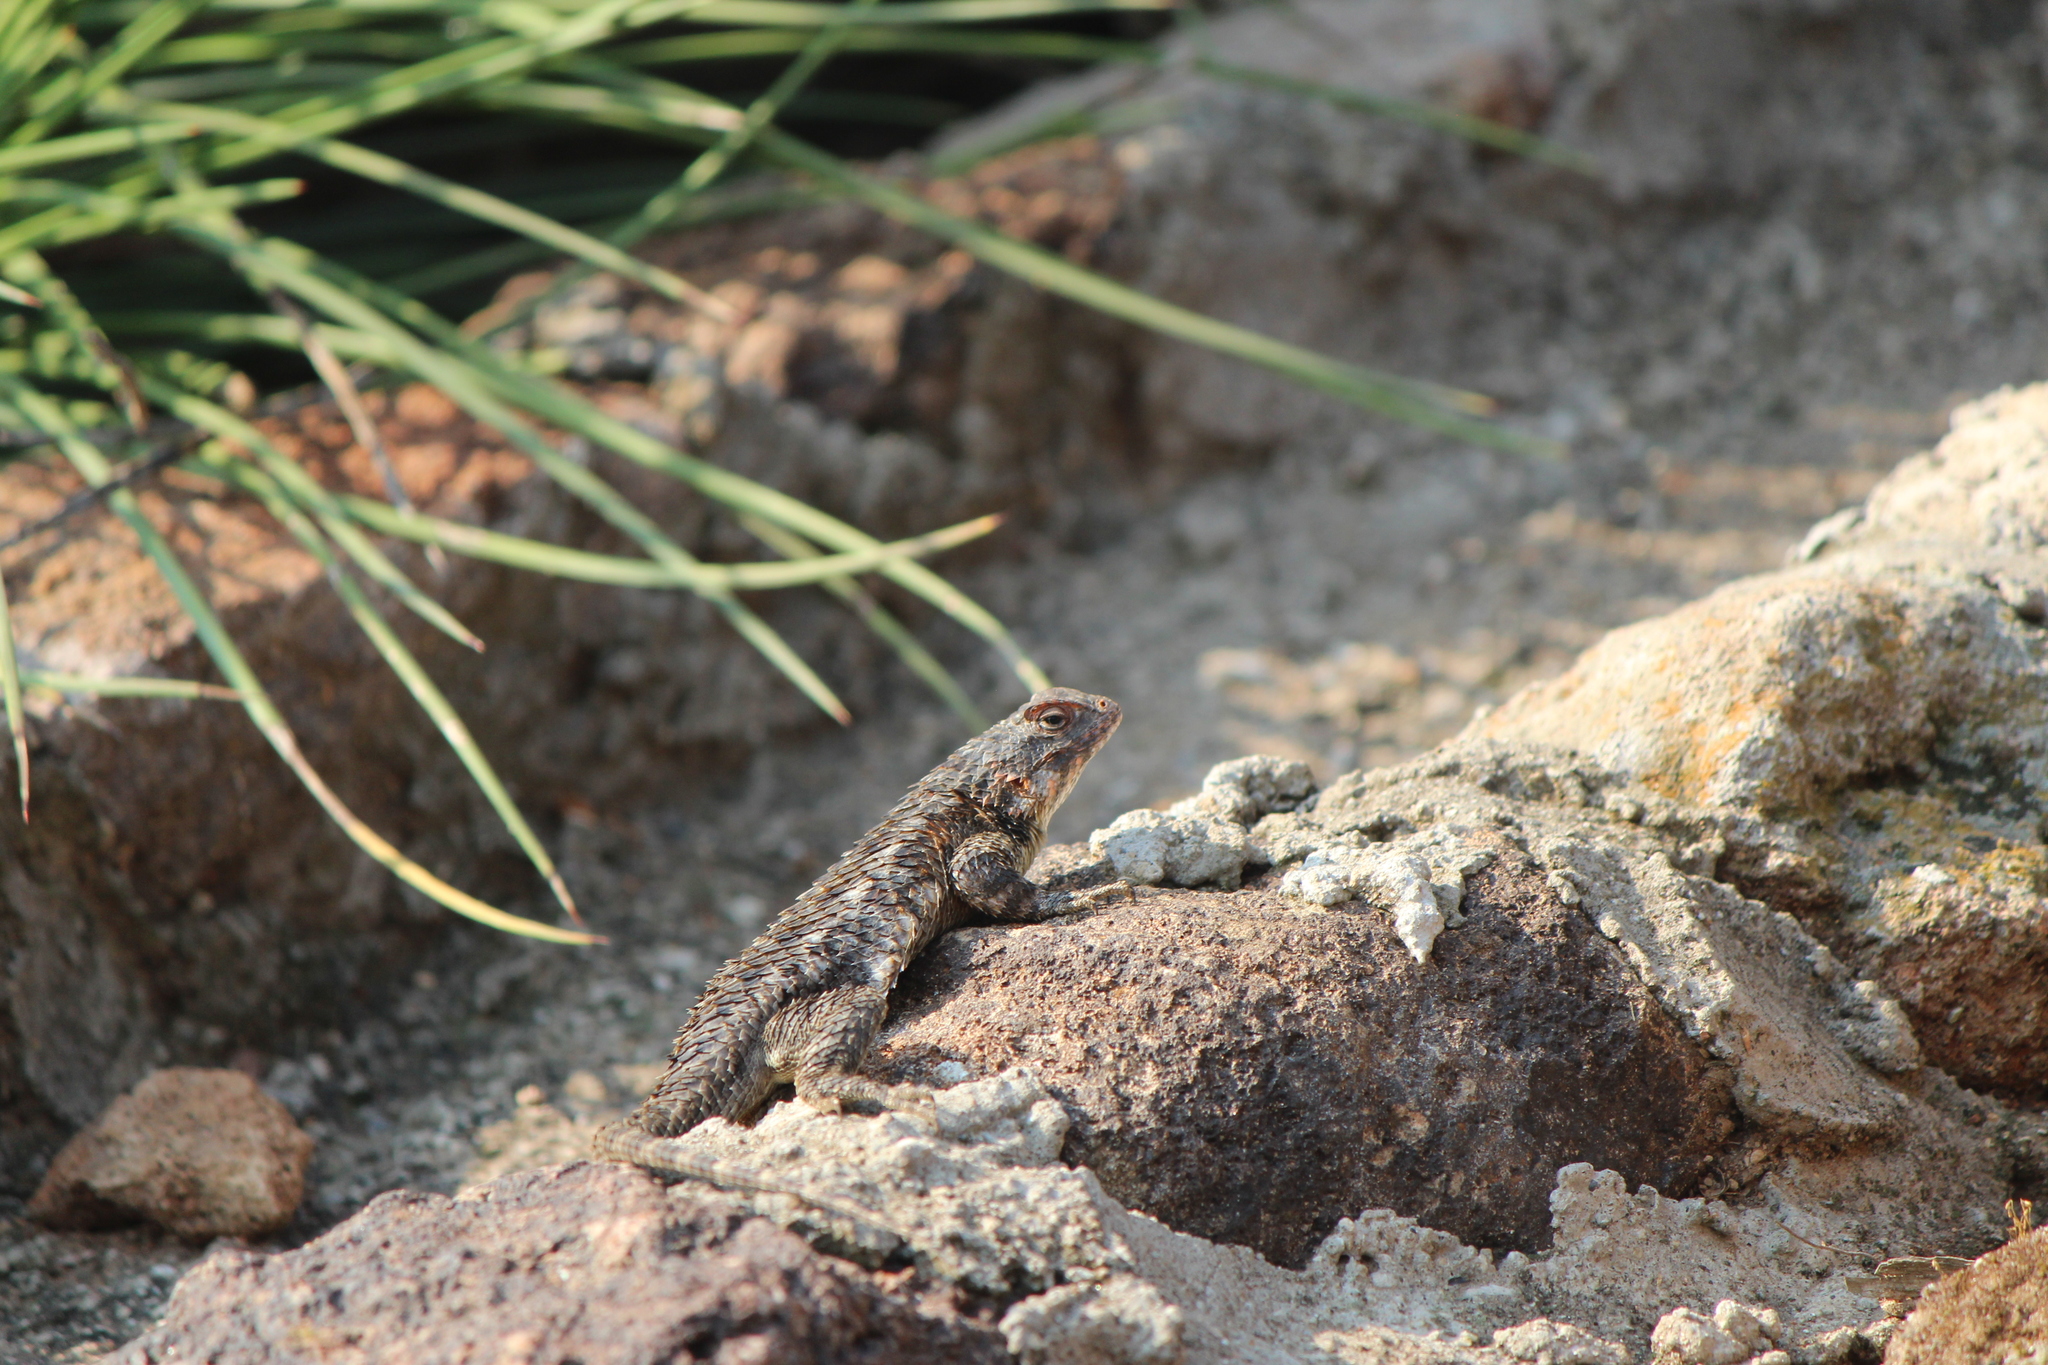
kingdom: Animalia
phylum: Chordata
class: Squamata
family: Phrynosomatidae
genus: Sceloporus
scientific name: Sceloporus spinosus
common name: Blue-spotted spiny lizard [caeruleopunctatus]
